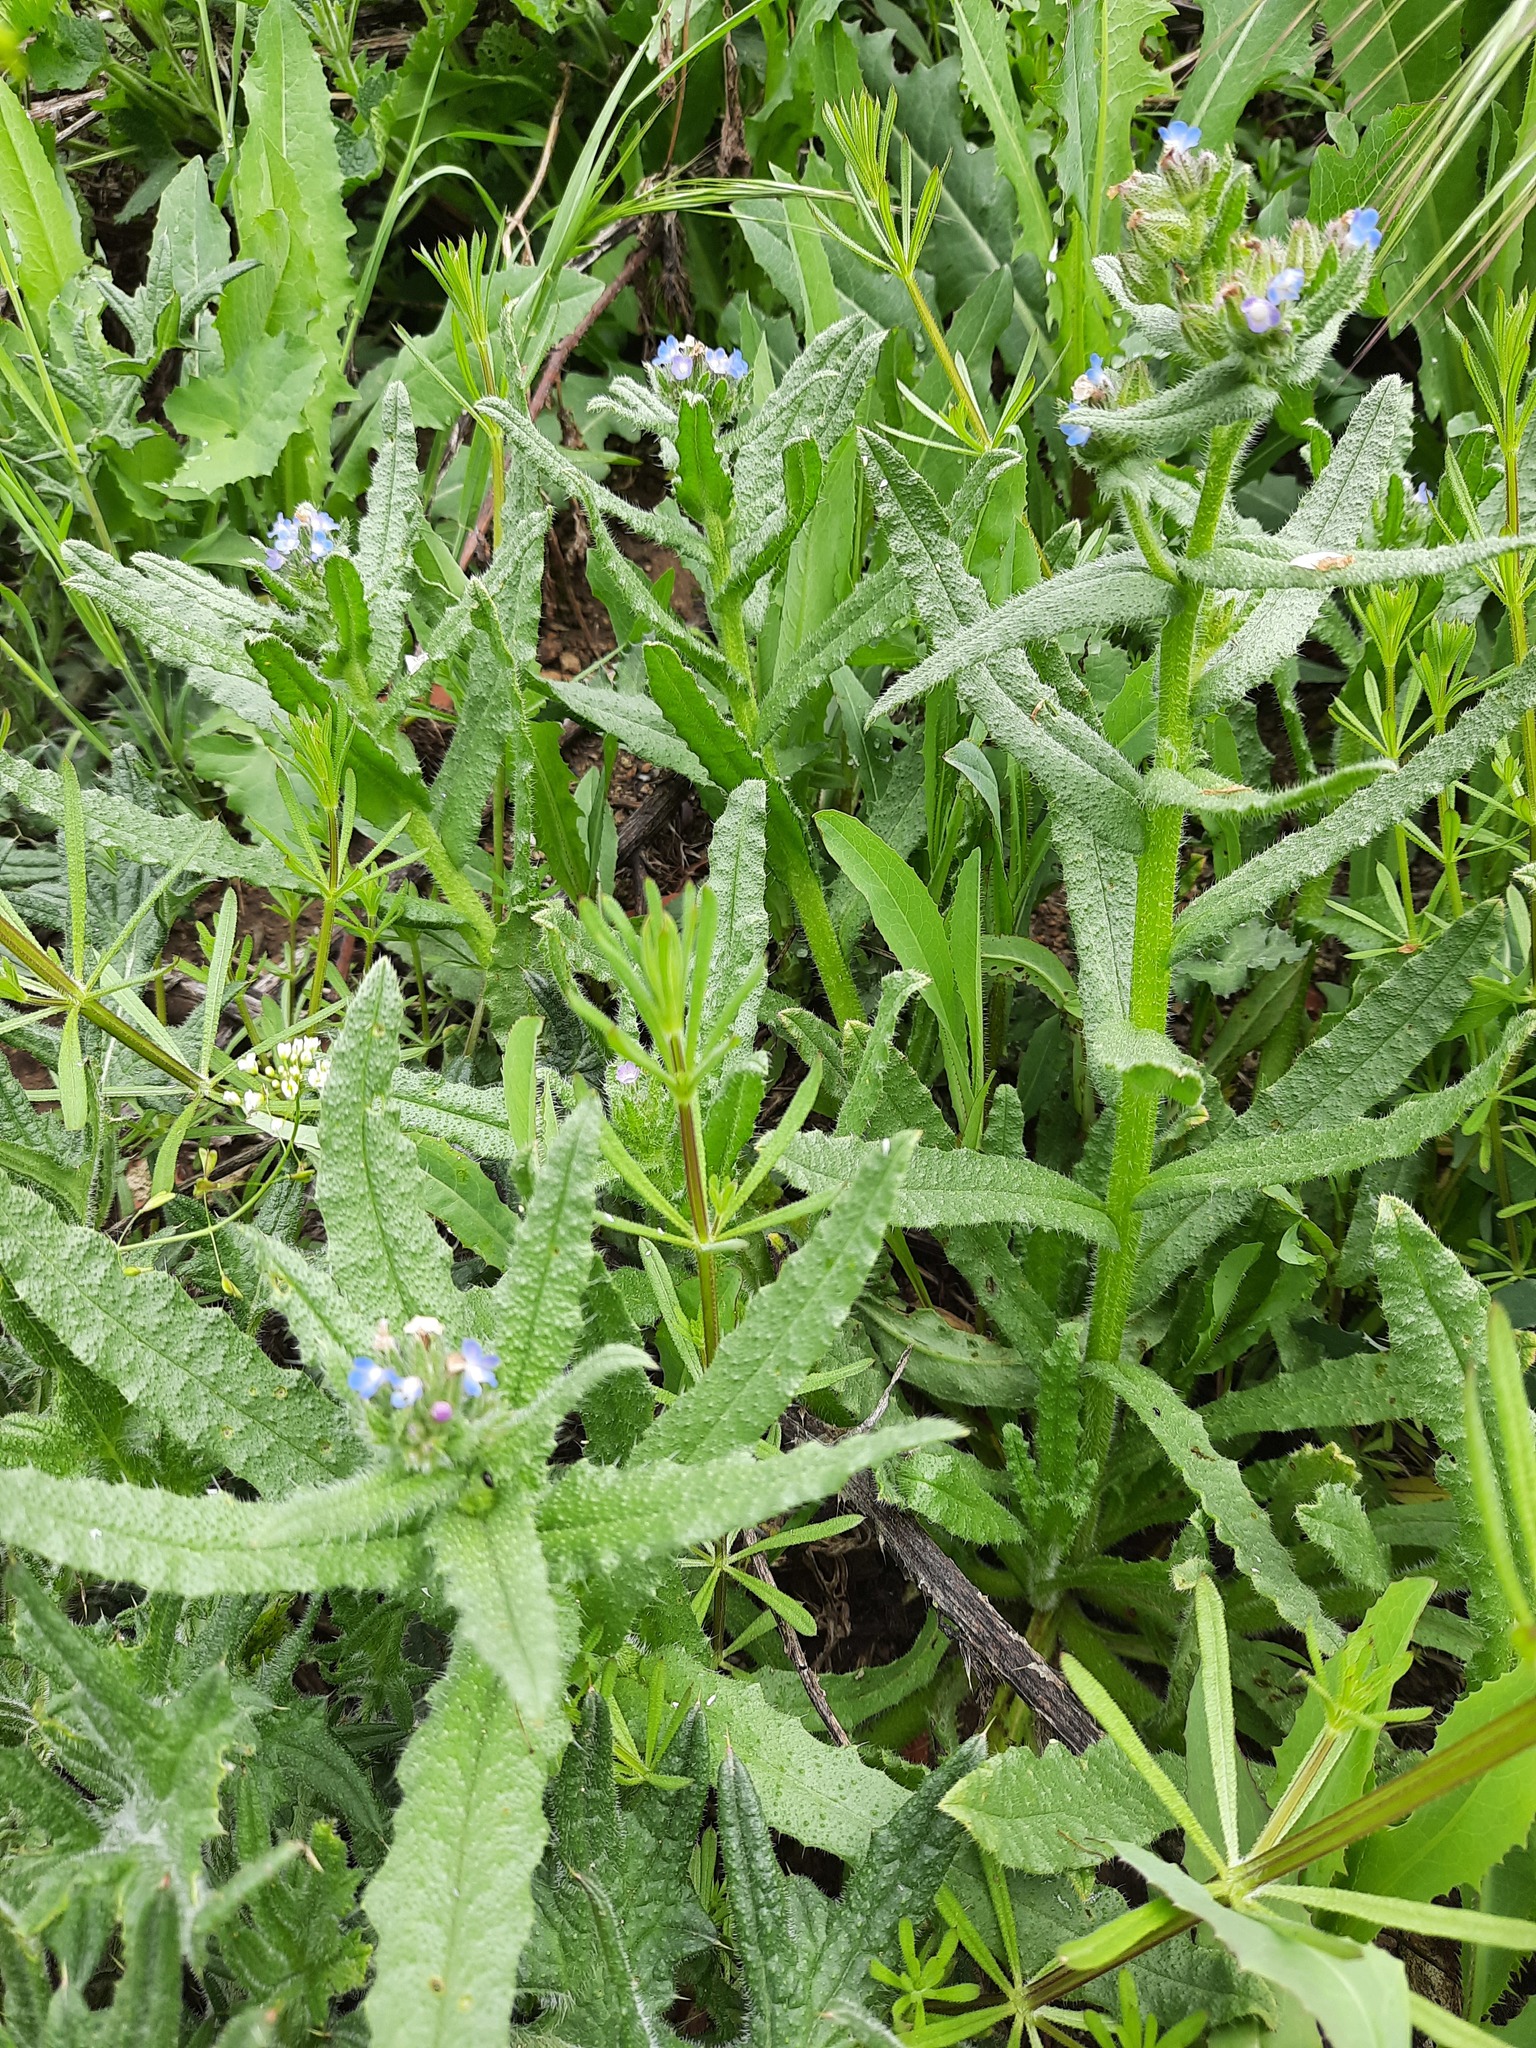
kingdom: Plantae
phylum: Tracheophyta
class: Magnoliopsida
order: Boraginales
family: Boraginaceae
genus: Lycopsis
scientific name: Lycopsis arvensis
